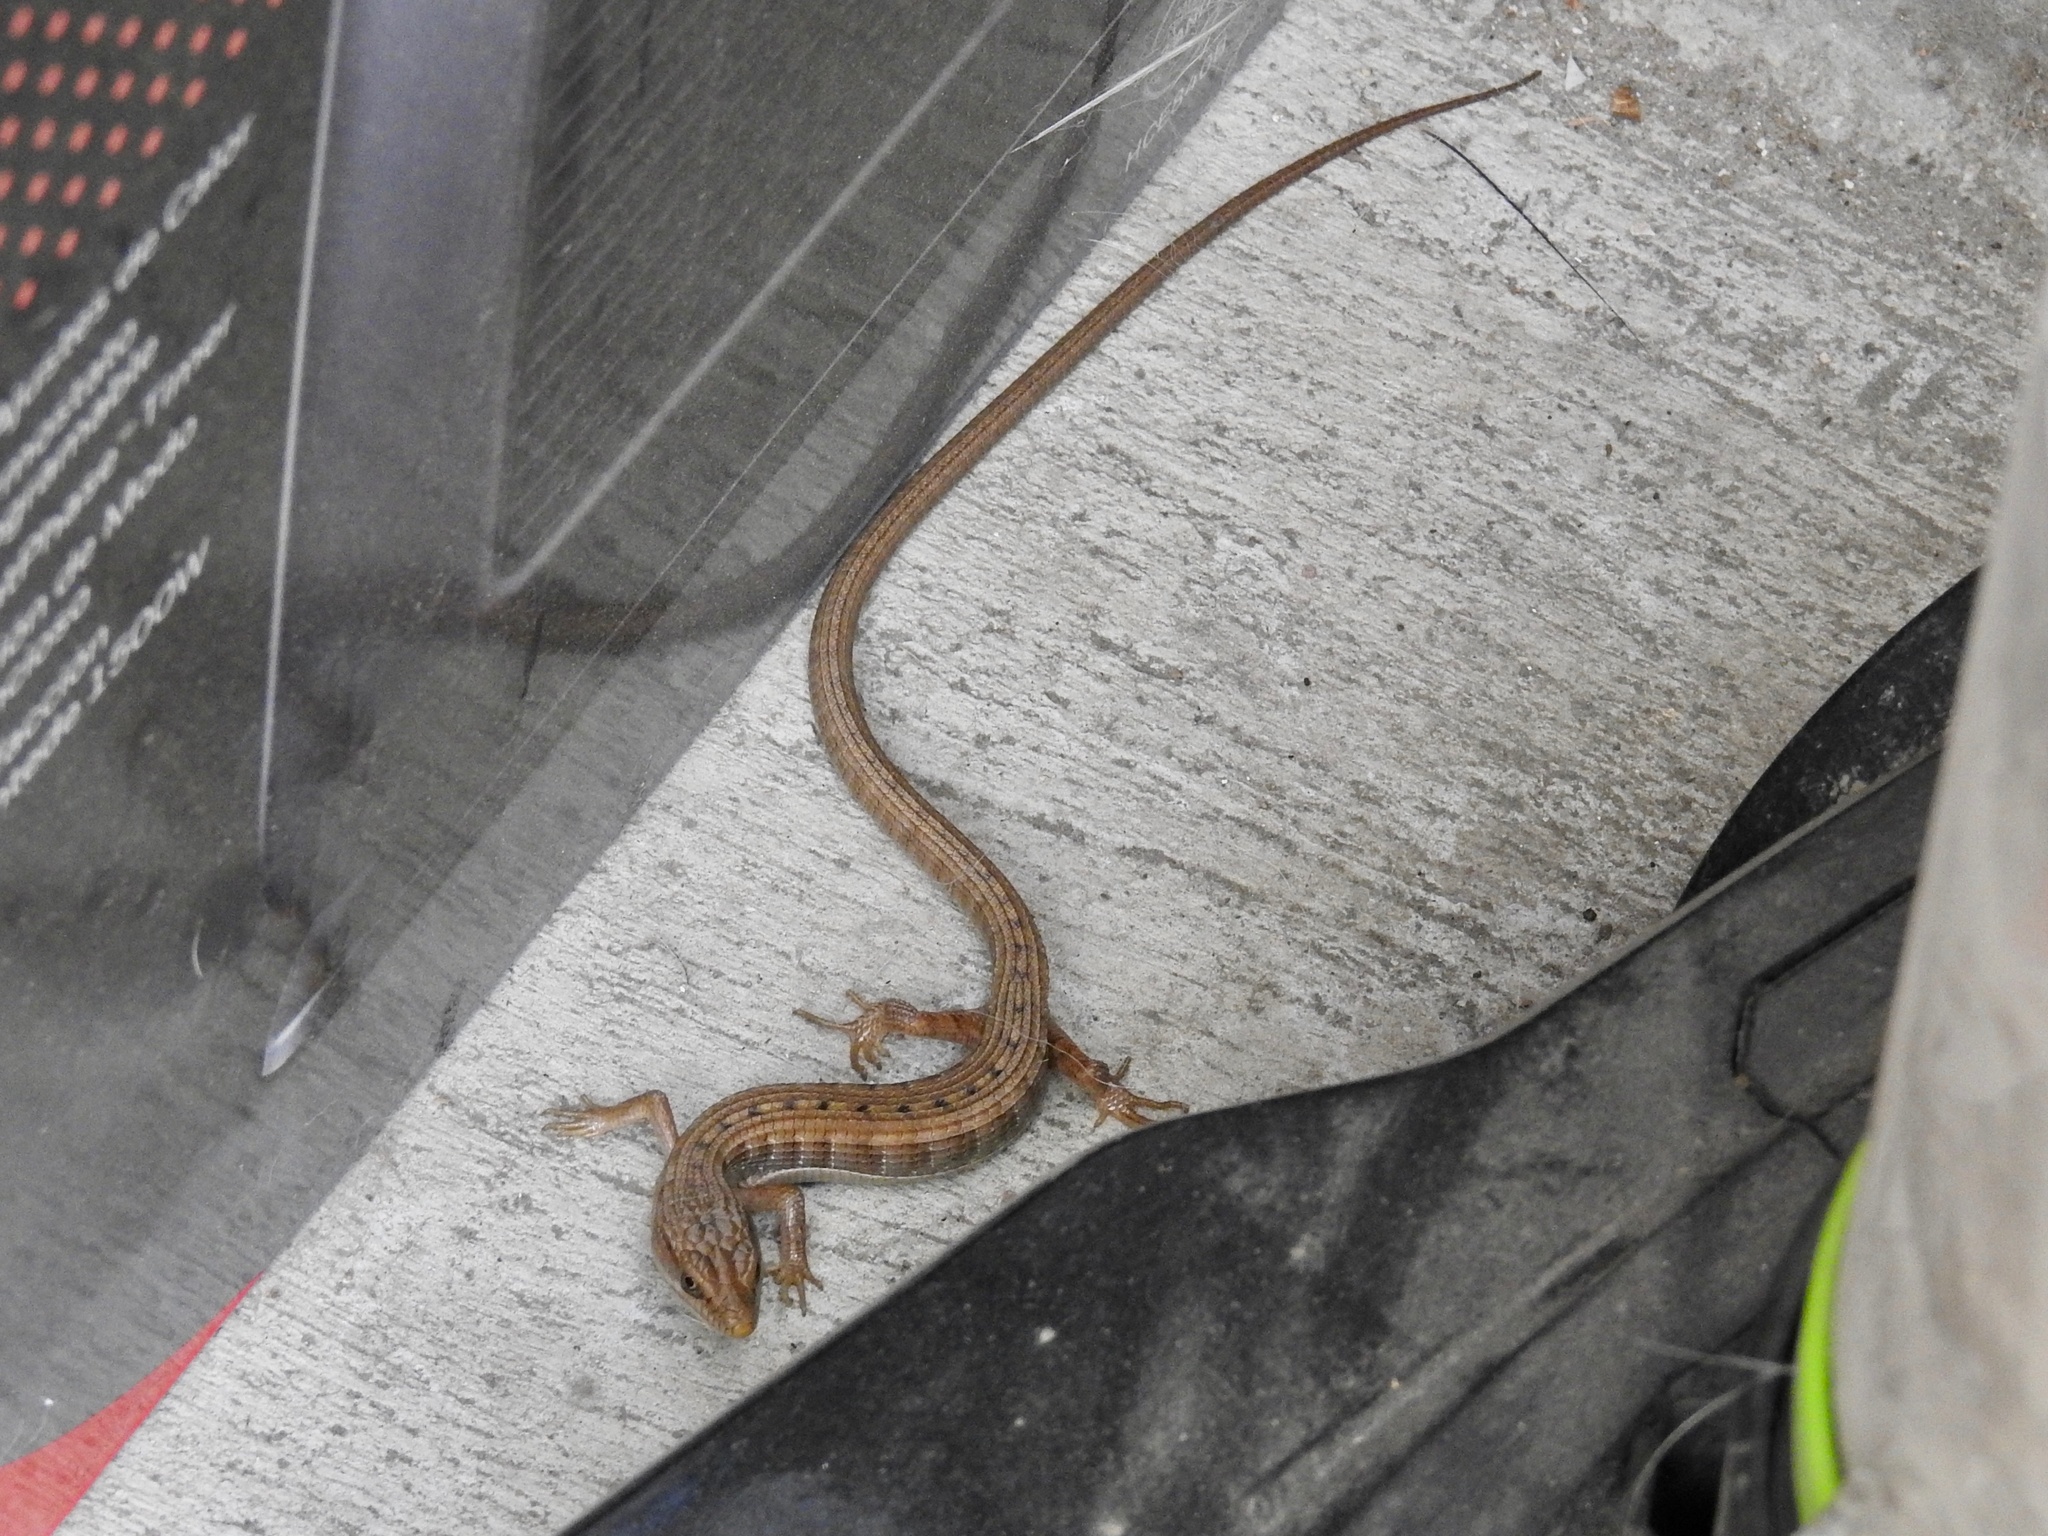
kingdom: Animalia
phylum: Chordata
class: Squamata
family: Anguidae
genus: Elgaria
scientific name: Elgaria multicarinata
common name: Southern alligator lizard
